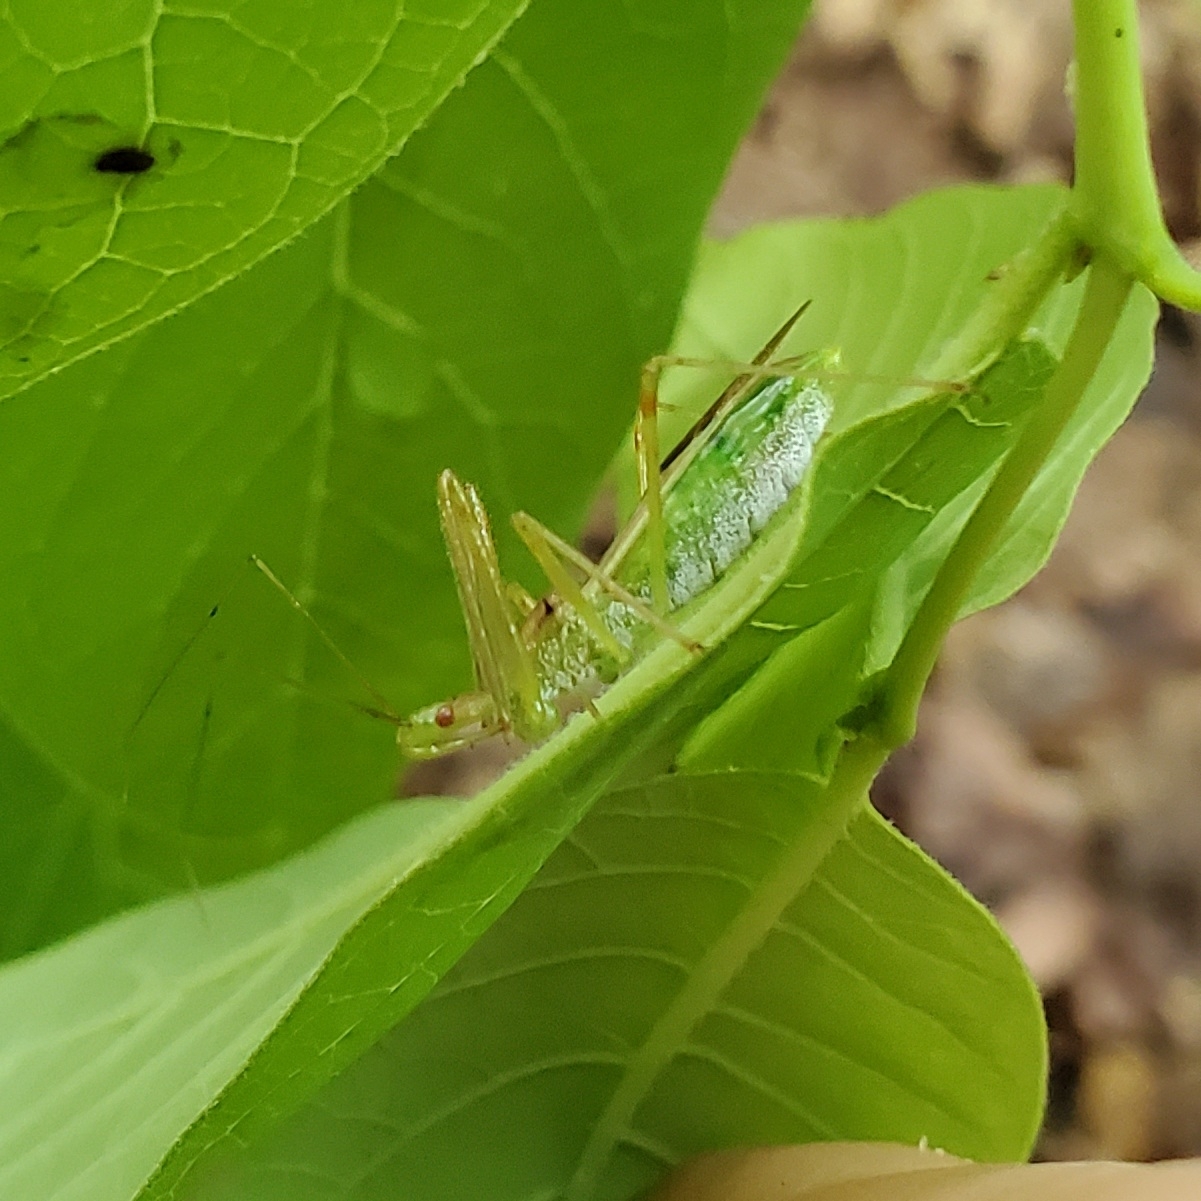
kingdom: Animalia
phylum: Arthropoda
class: Insecta
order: Hemiptera
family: Reduviidae
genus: Zelus
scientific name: Zelus luridus
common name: Pale green assassin bug
